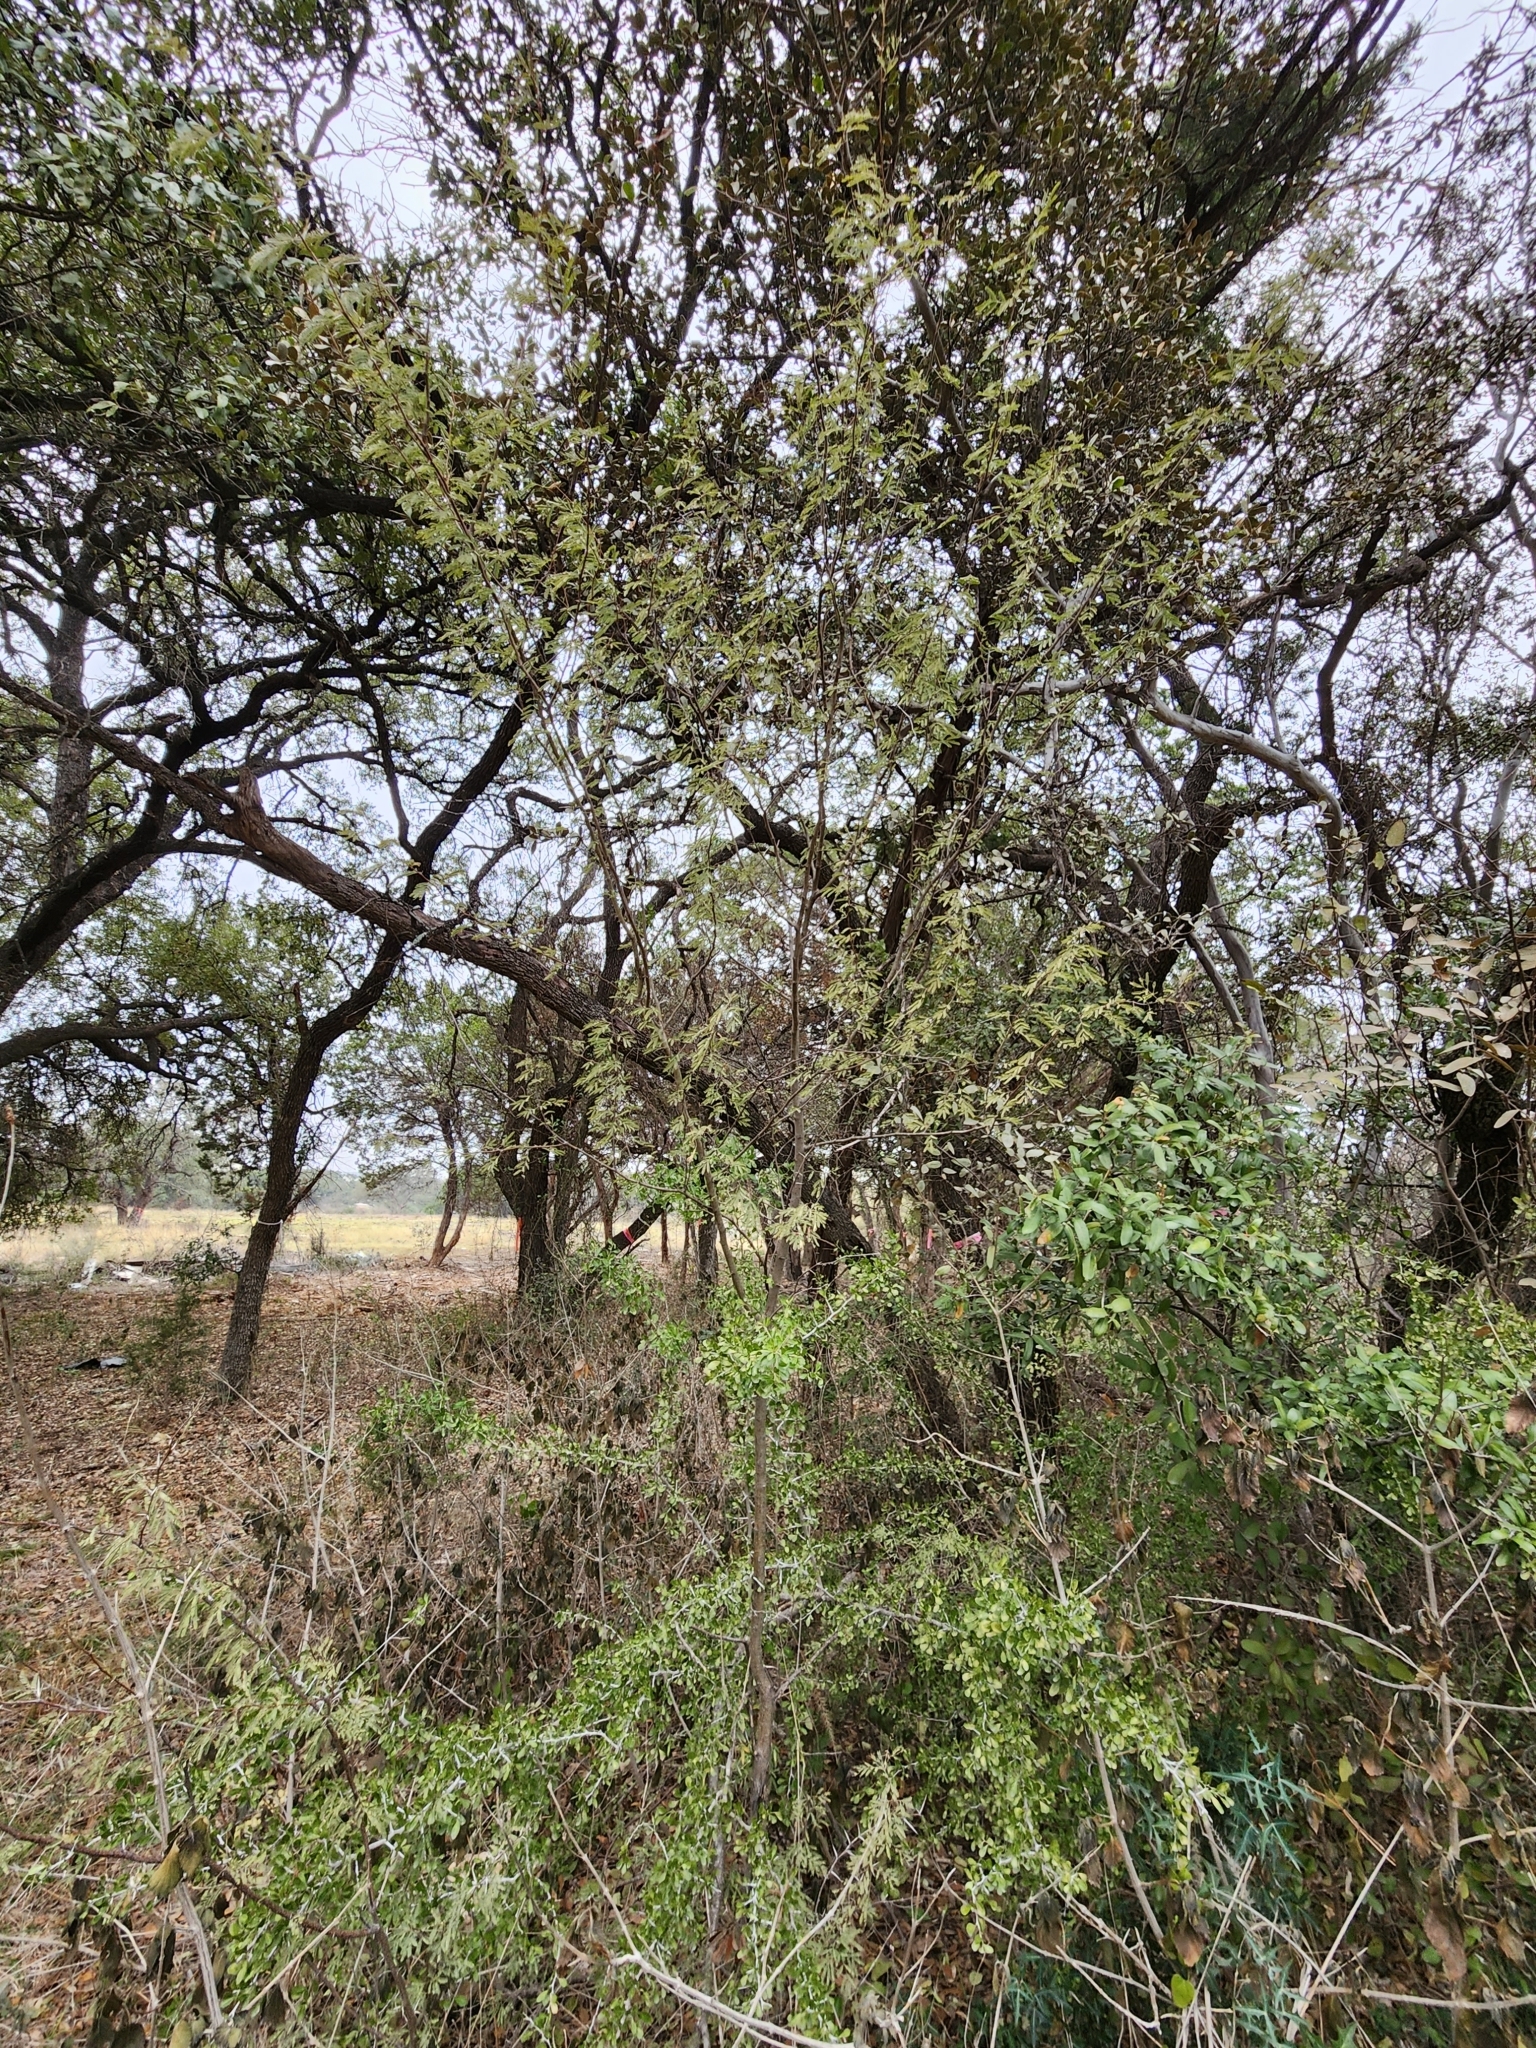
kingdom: Plantae
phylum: Tracheophyta
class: Magnoliopsida
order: Fabales
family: Fabaceae
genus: Vachellia
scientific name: Vachellia farnesiana
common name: Sweet acacia
